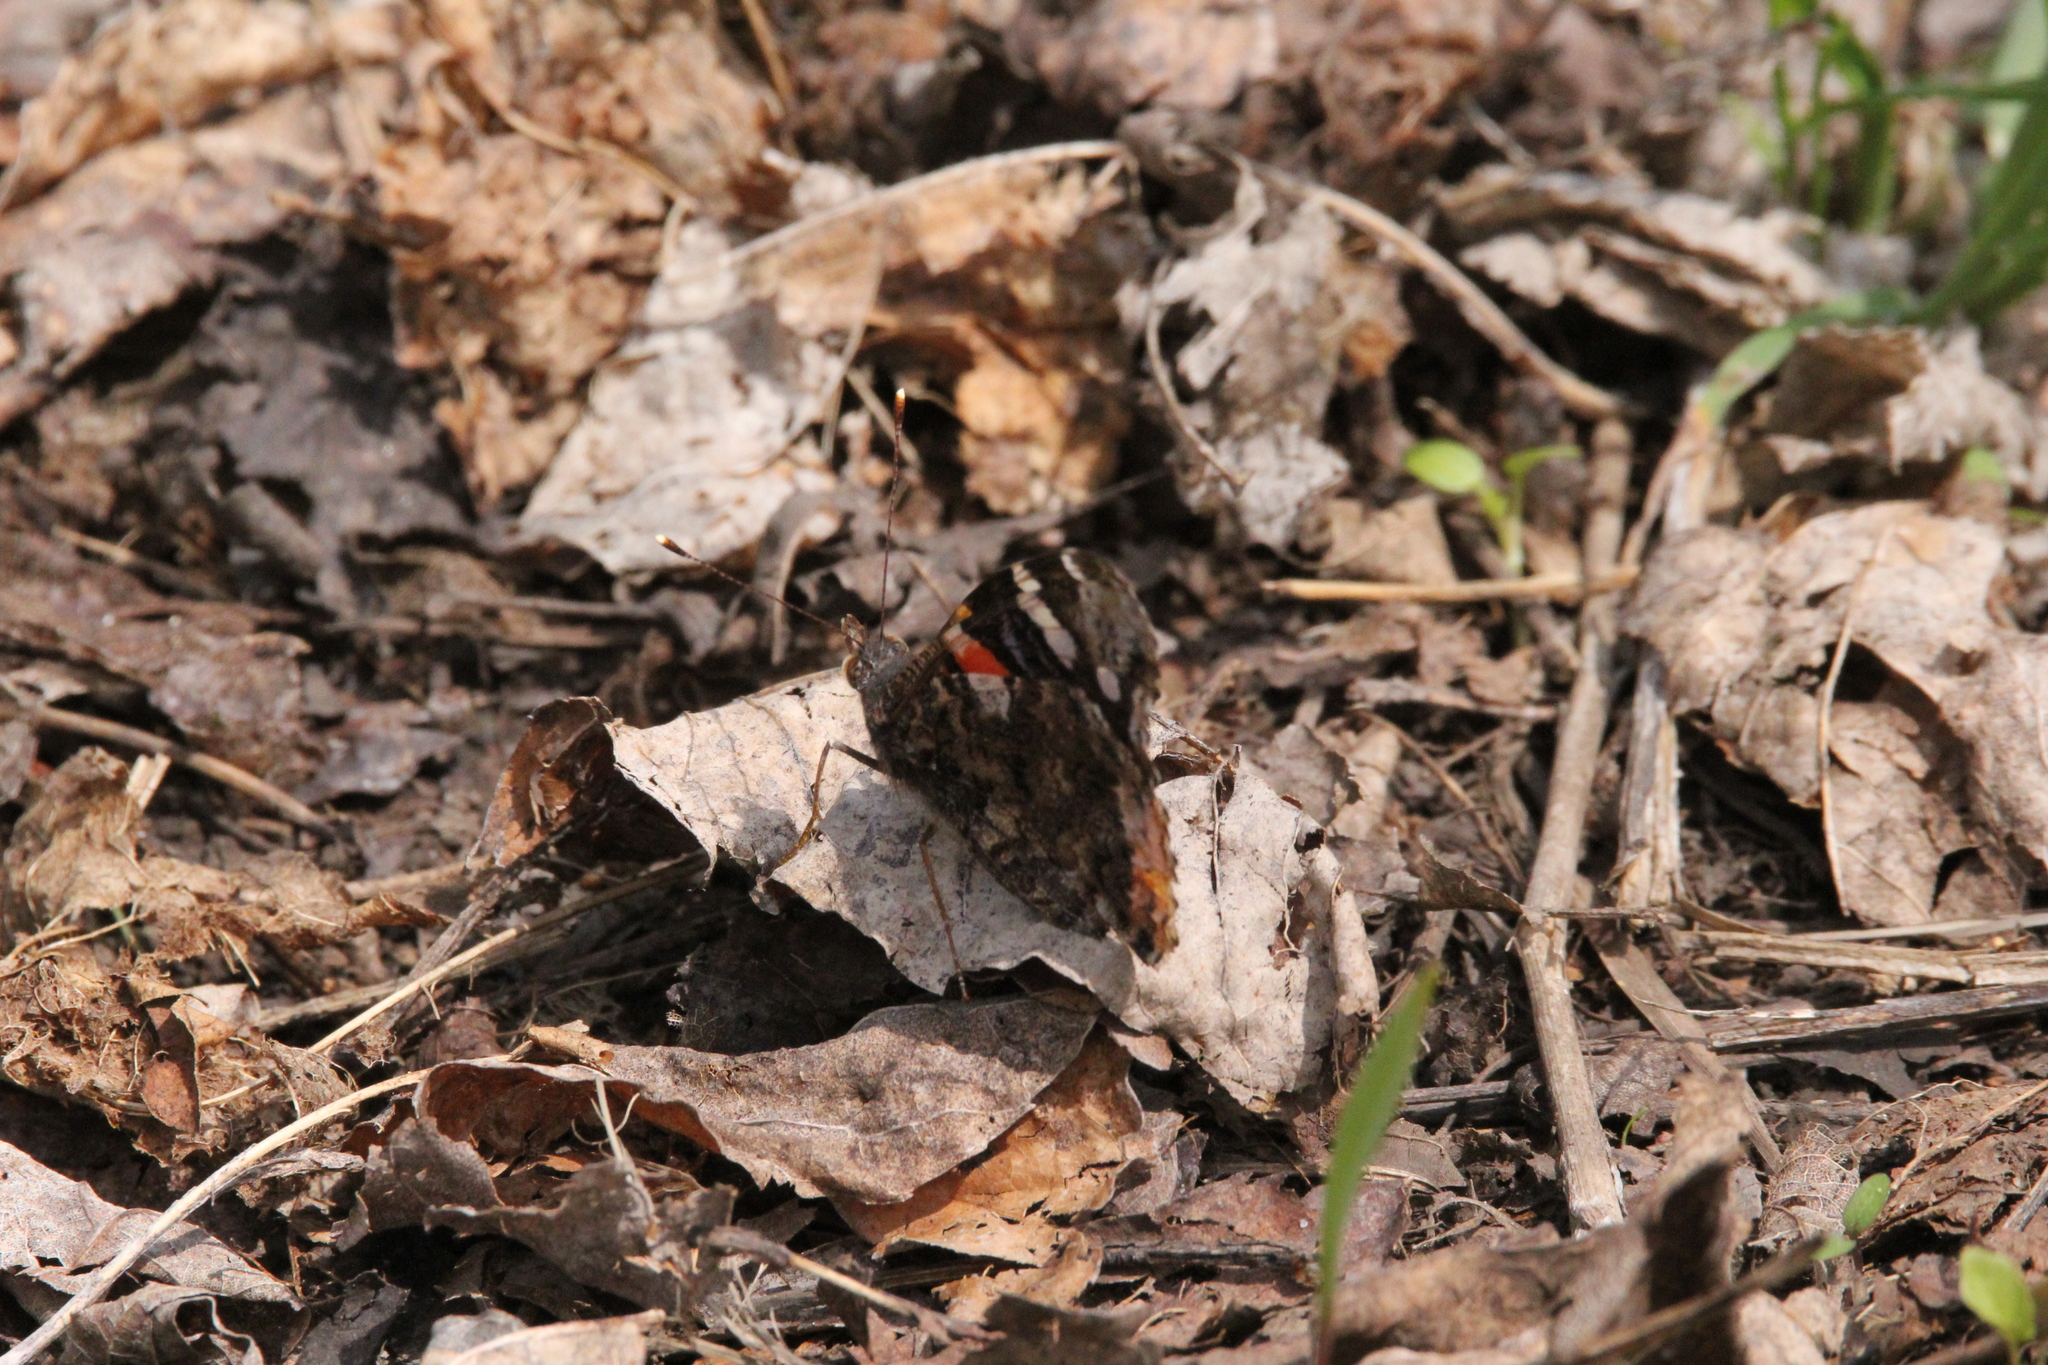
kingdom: Animalia
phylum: Arthropoda
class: Insecta
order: Lepidoptera
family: Nymphalidae
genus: Vanessa
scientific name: Vanessa atalanta
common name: Red admiral
